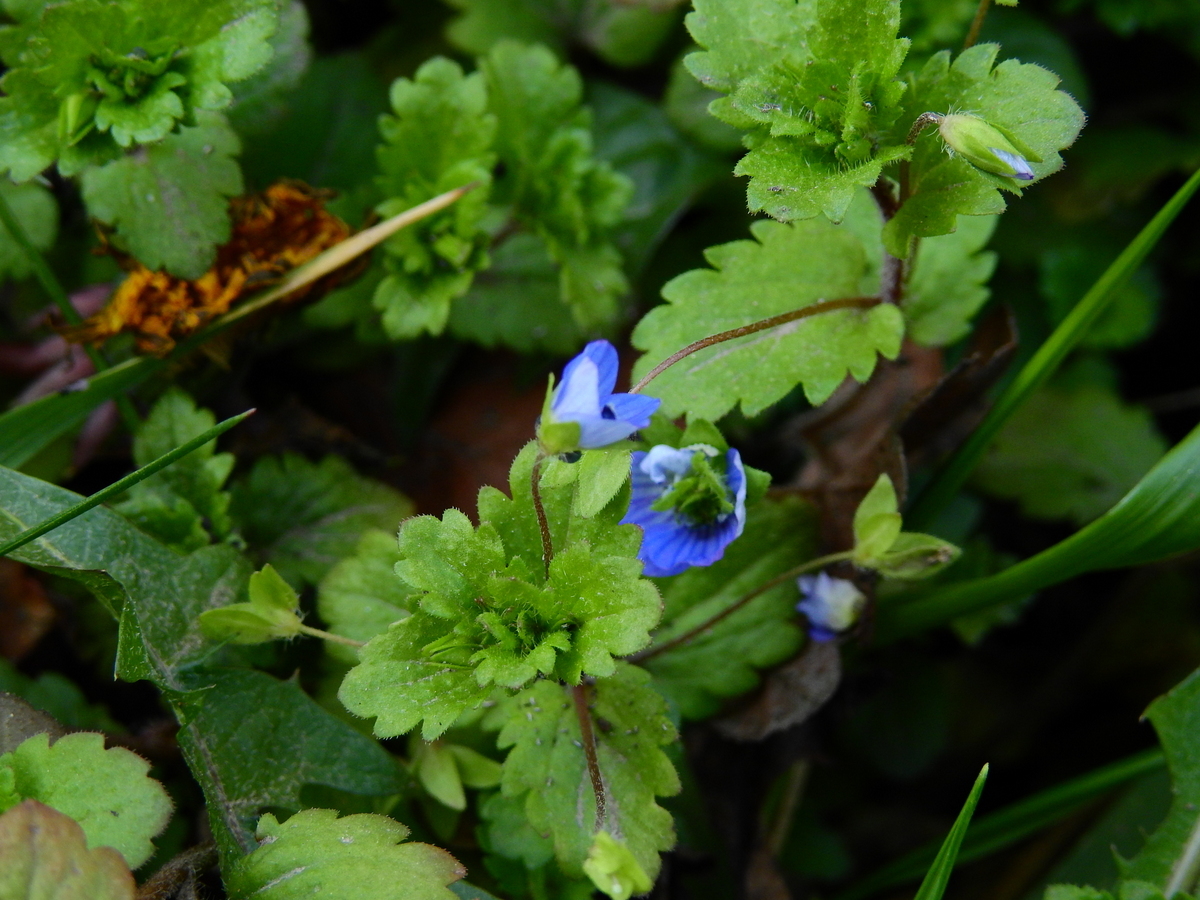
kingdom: Plantae
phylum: Tracheophyta
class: Magnoliopsida
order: Lamiales
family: Plantaginaceae
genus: Veronica
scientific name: Veronica persica
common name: Common field-speedwell
